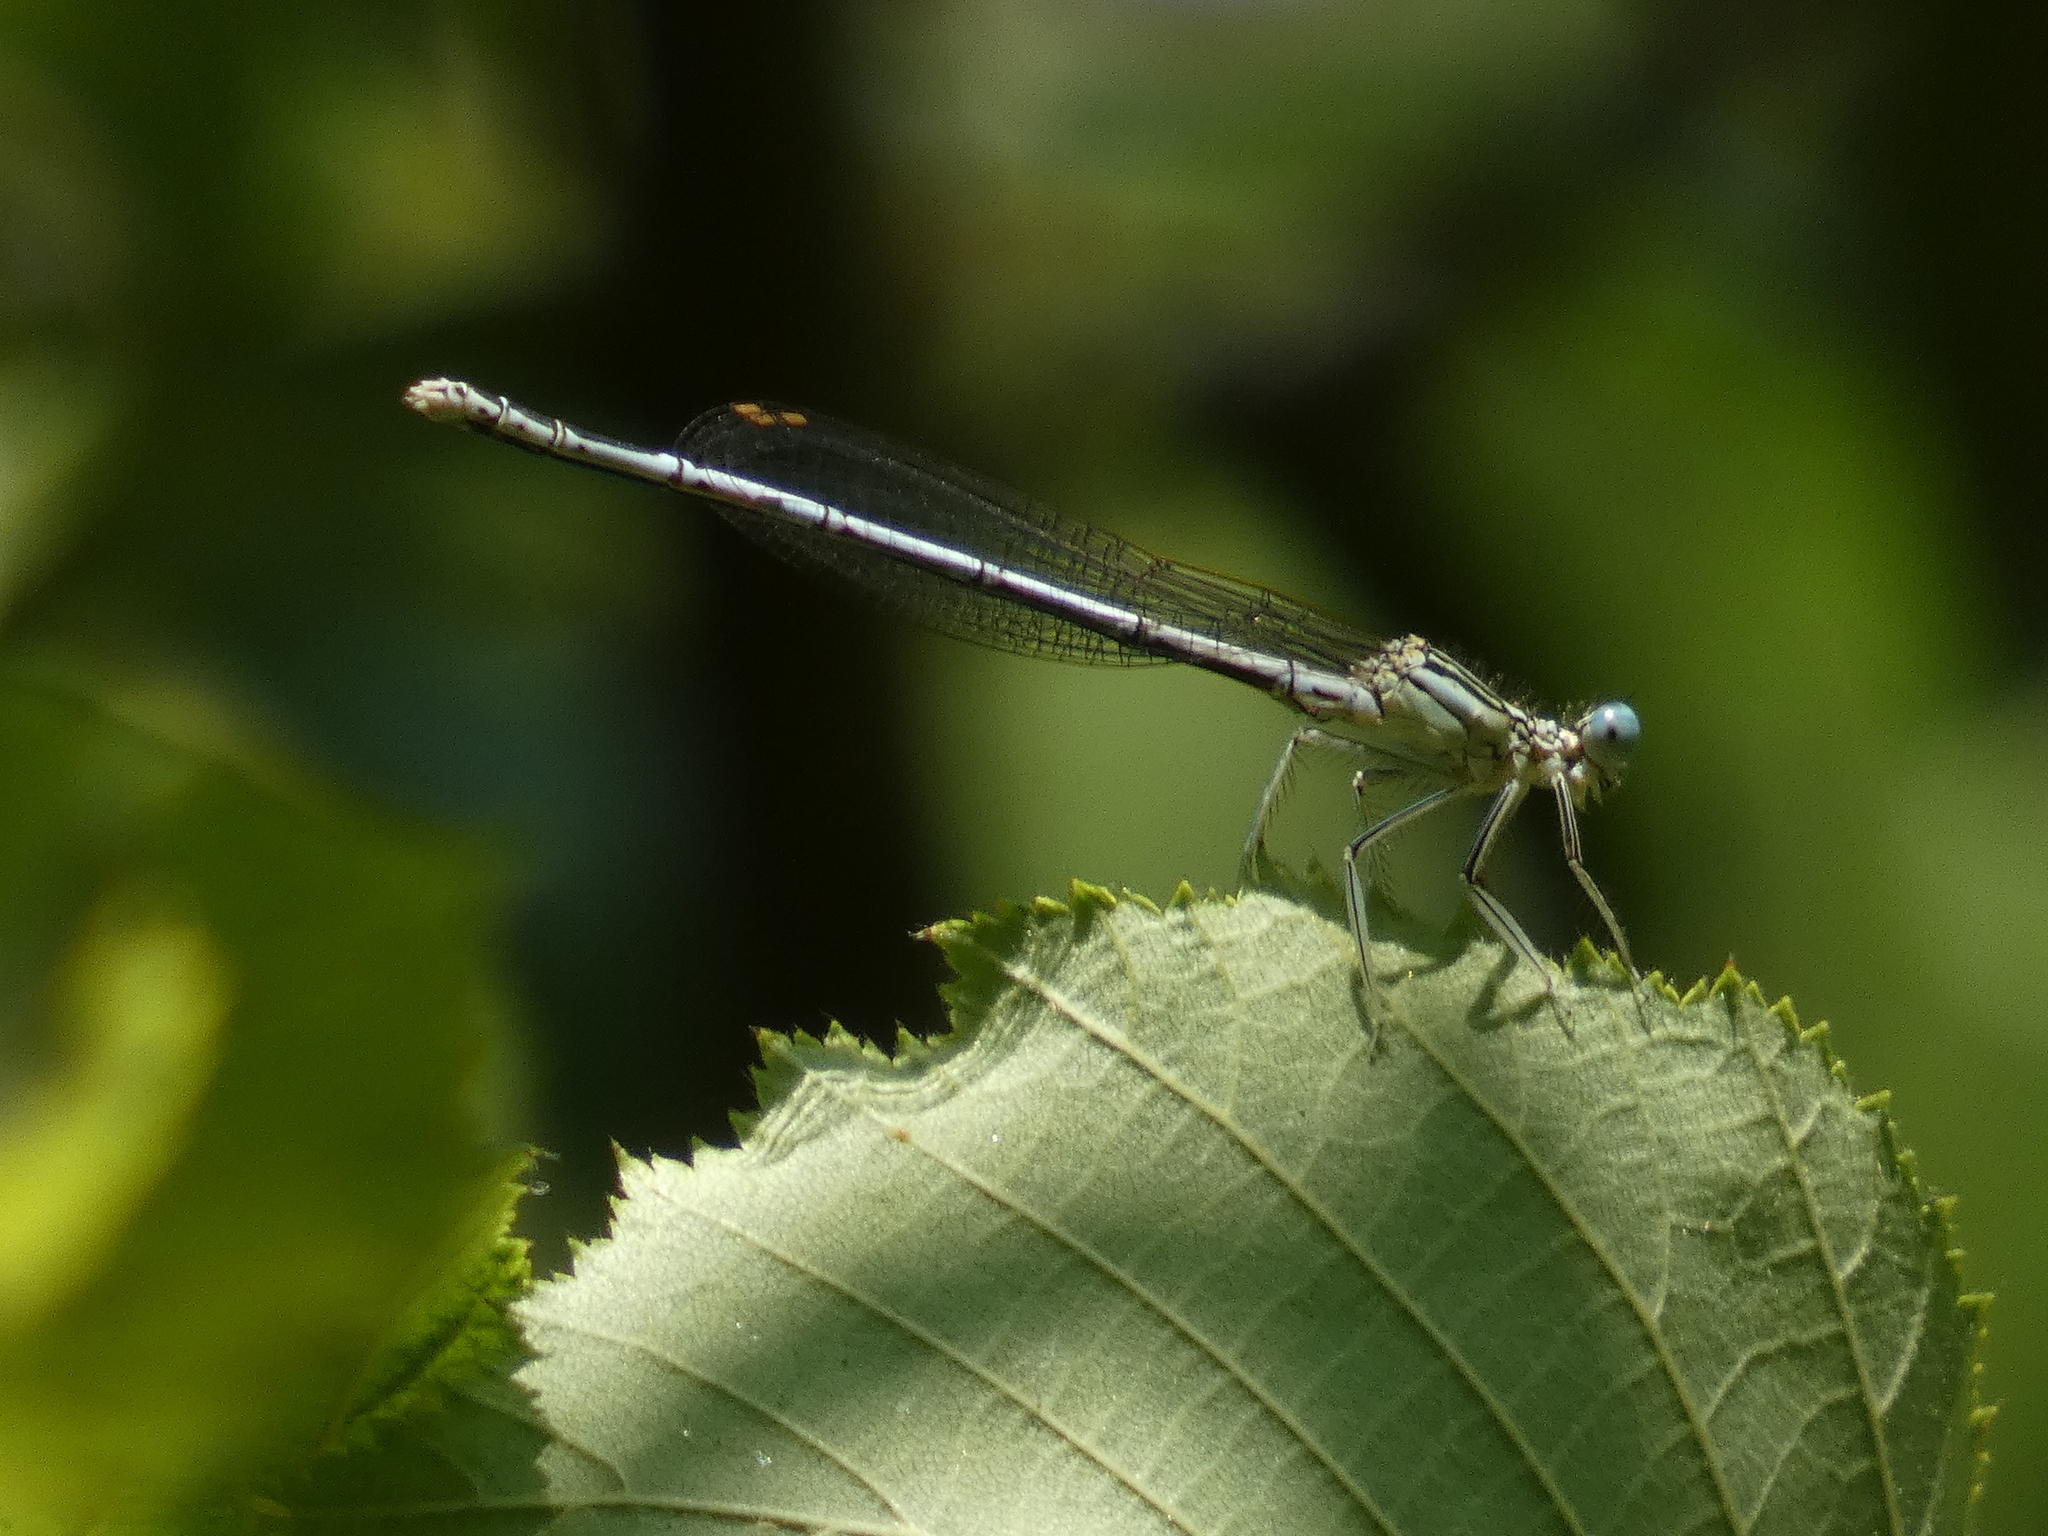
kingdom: Animalia
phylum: Arthropoda
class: Insecta
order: Odonata
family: Platycnemididae
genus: Platycnemis
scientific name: Platycnemis pennipes
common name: White-legged damselfly
